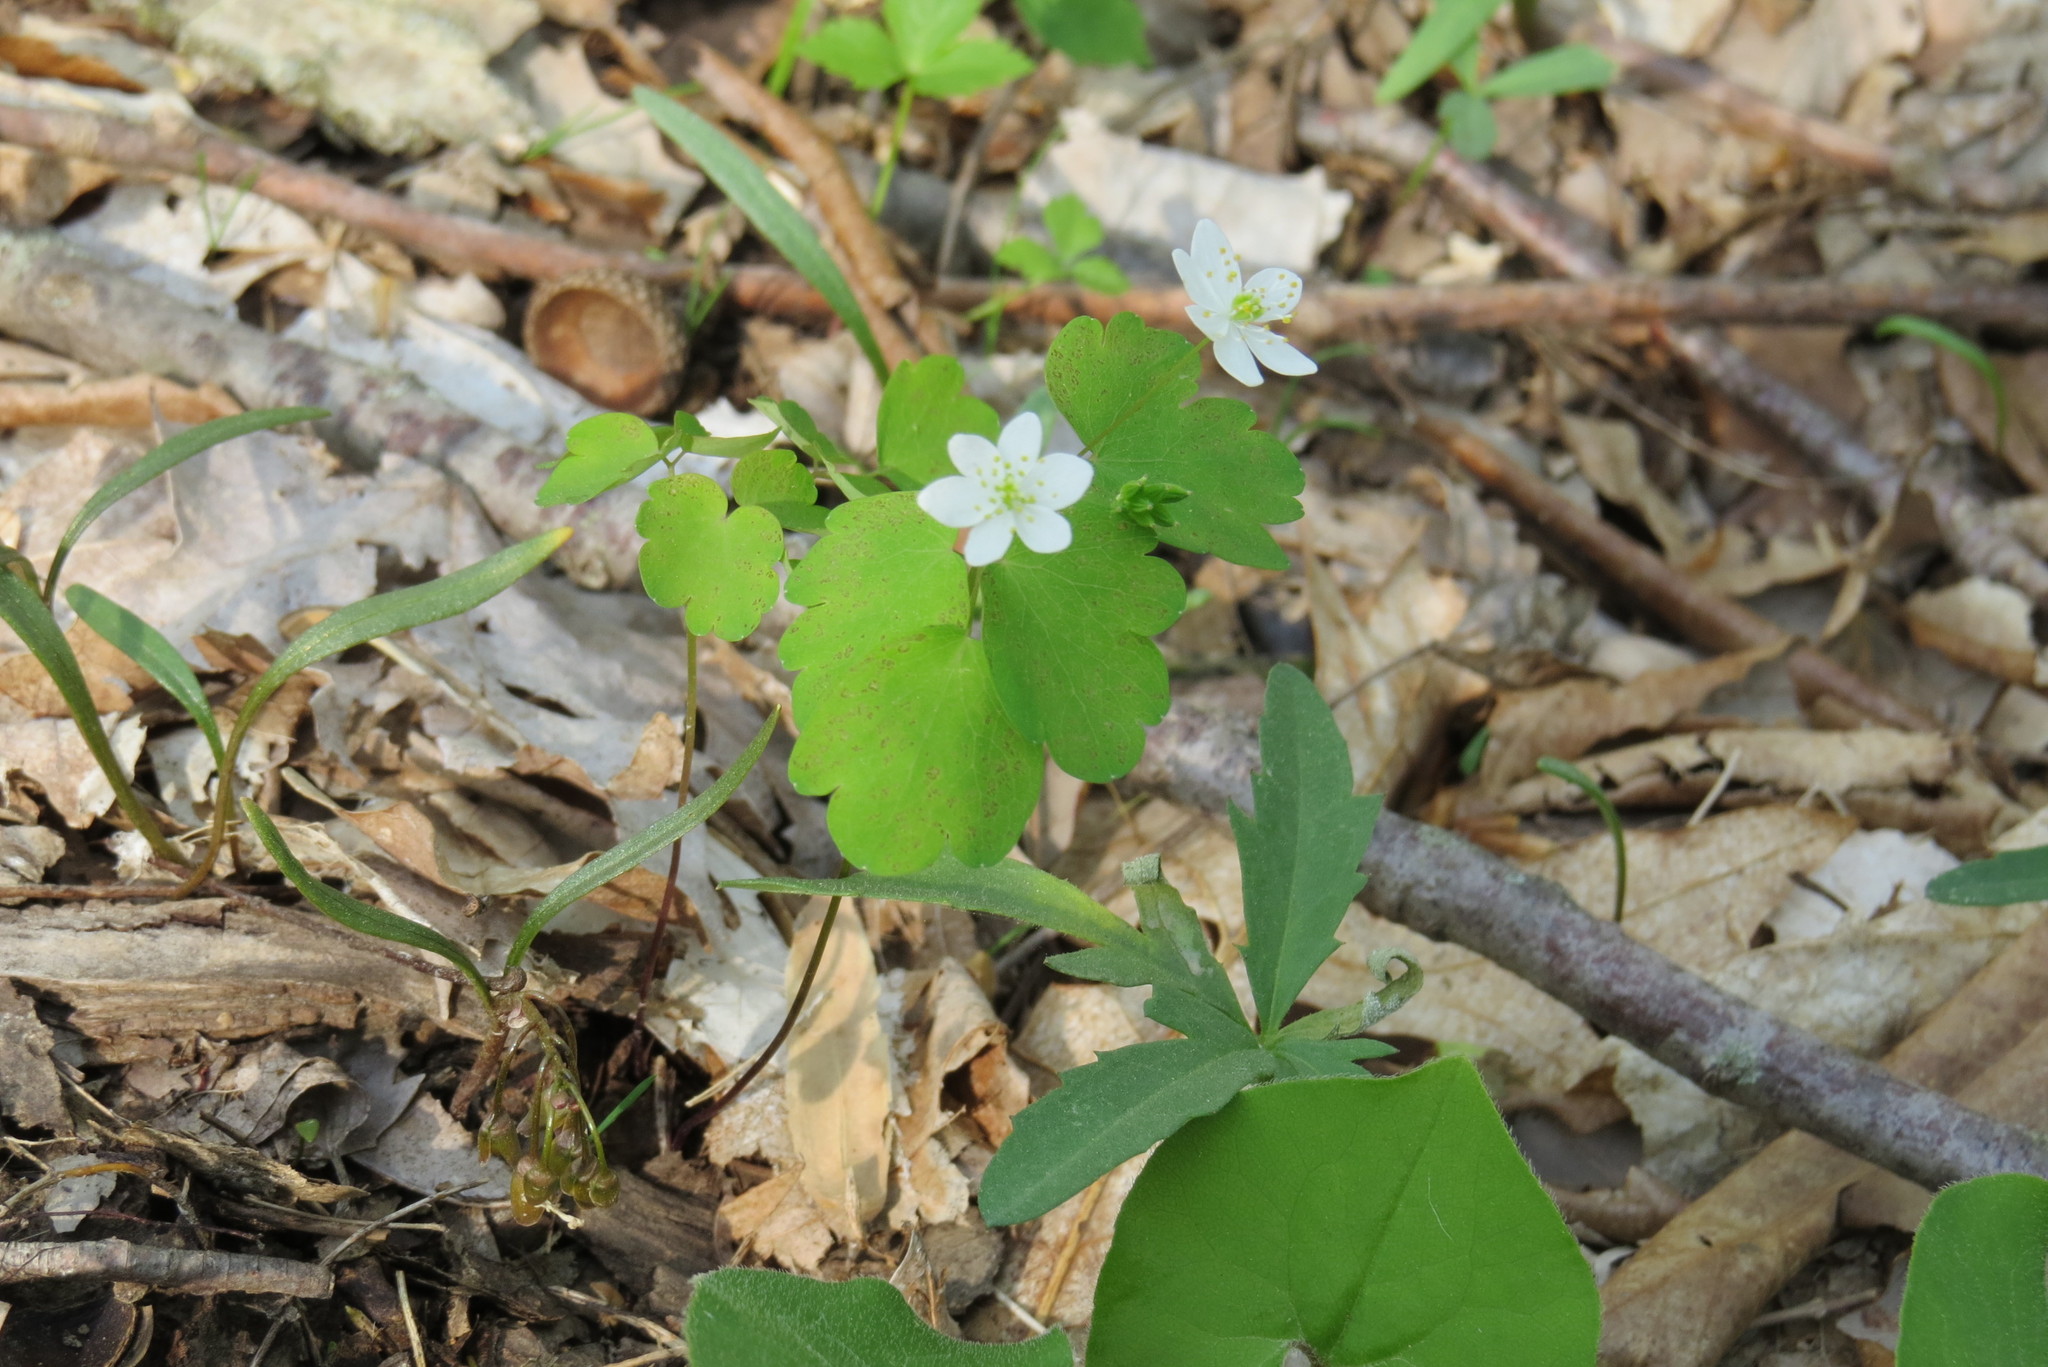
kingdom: Plantae
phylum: Tracheophyta
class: Magnoliopsida
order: Ranunculales
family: Ranunculaceae
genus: Thalictrum
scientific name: Thalictrum thalictroides
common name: Rue-anemone
